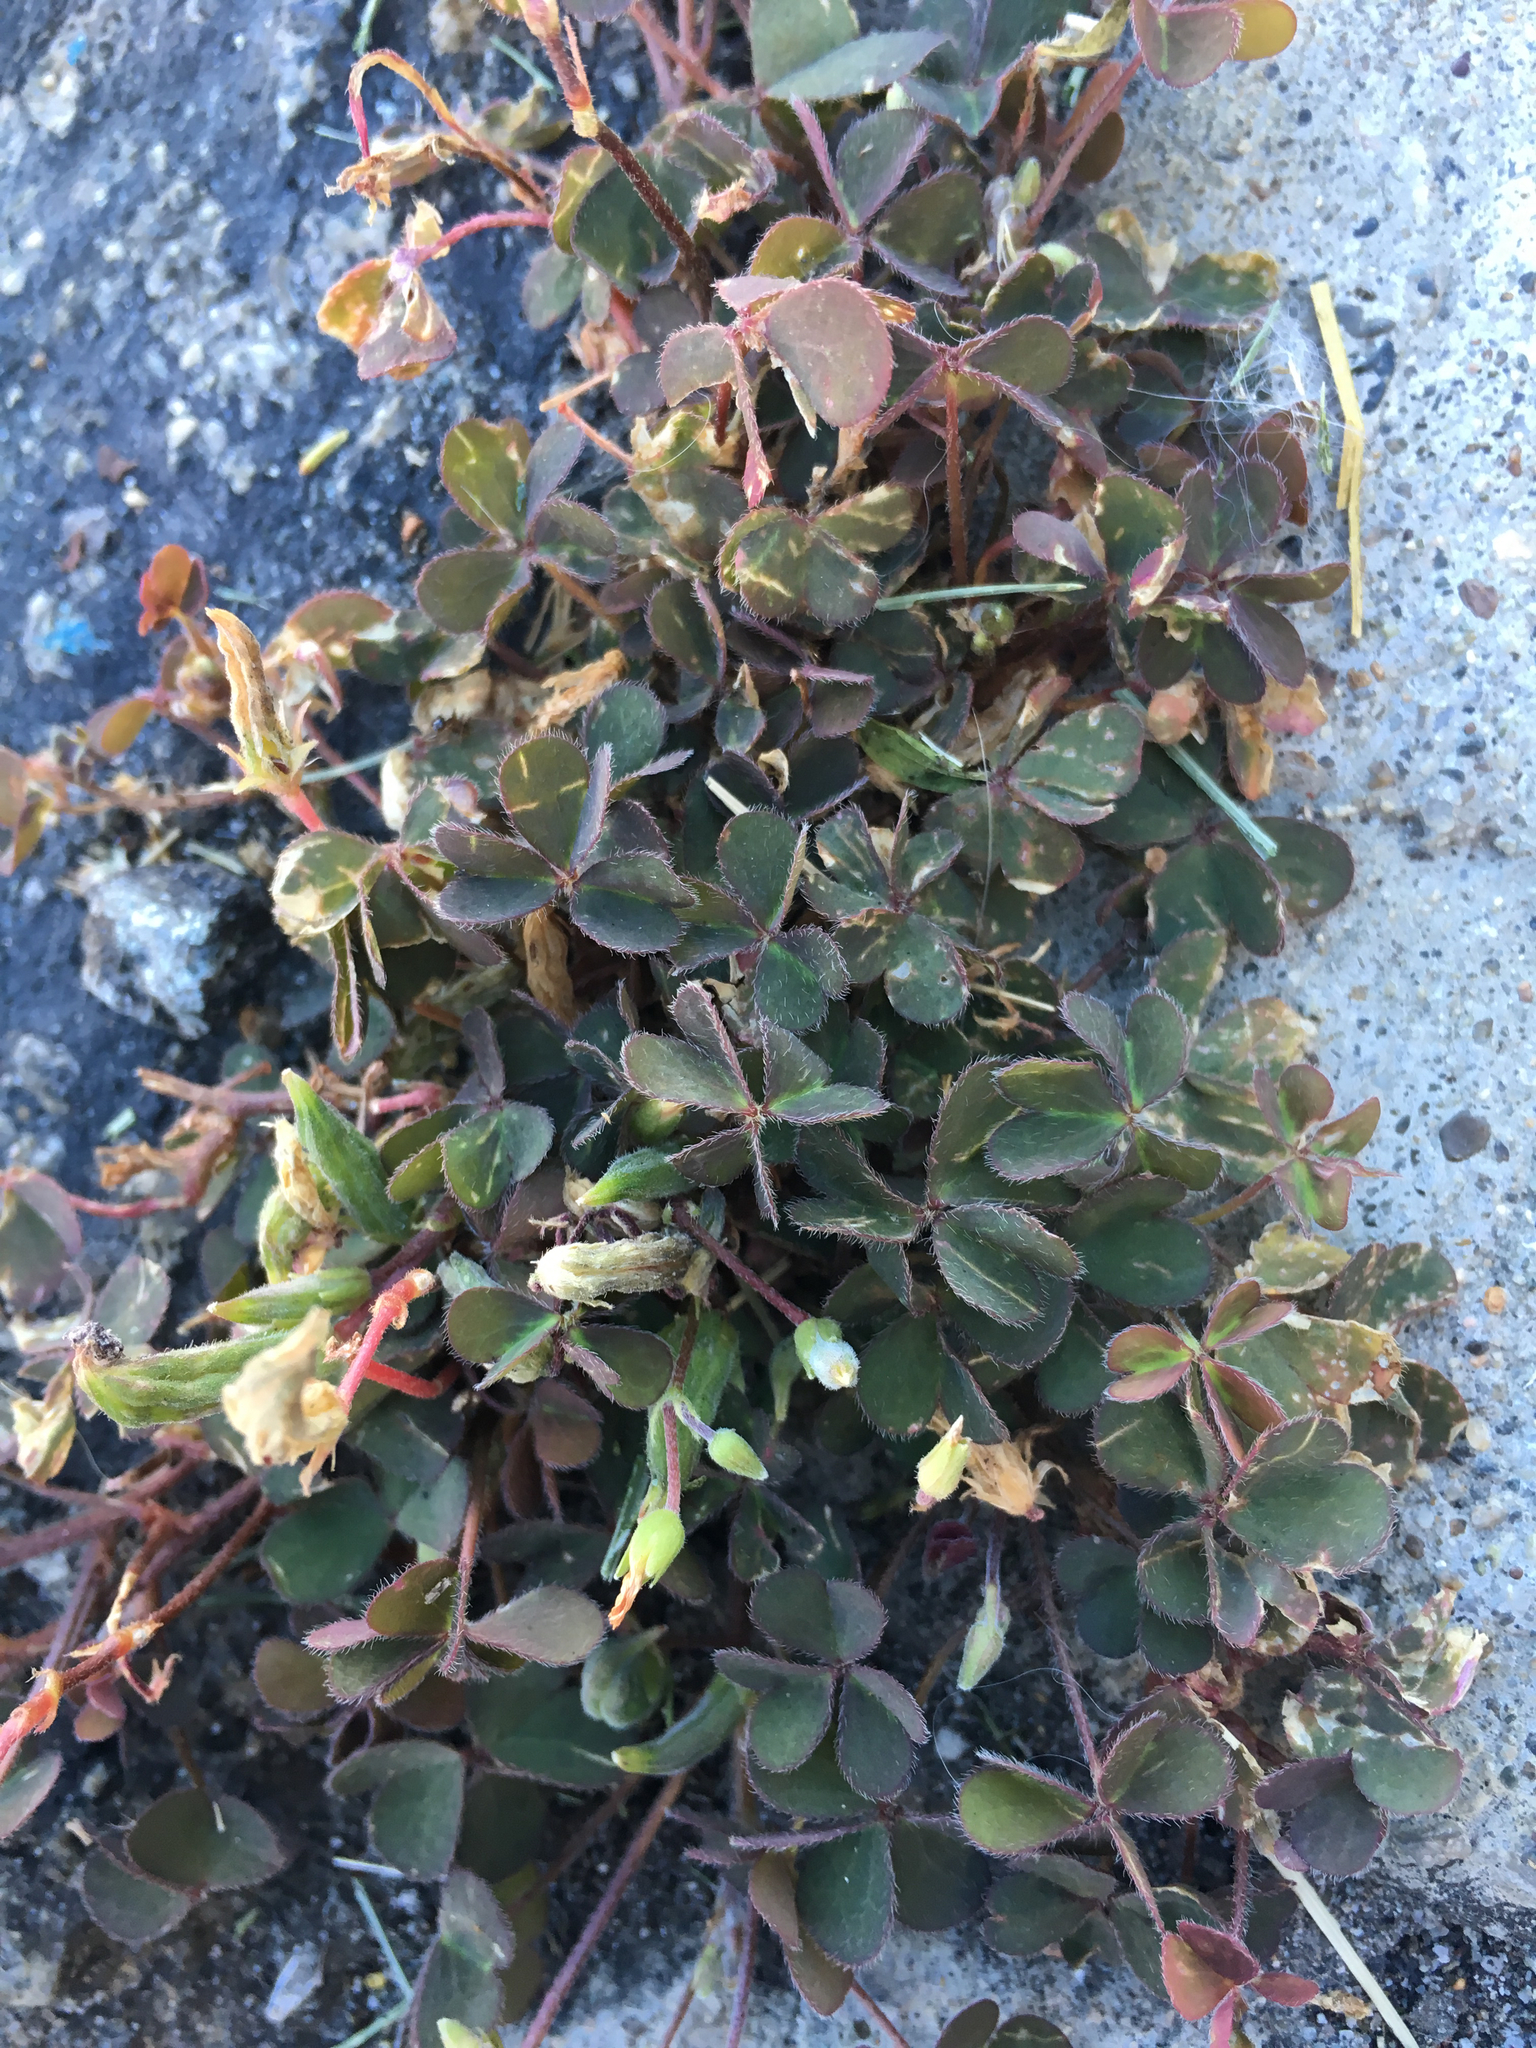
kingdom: Plantae
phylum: Tracheophyta
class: Magnoliopsida
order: Oxalidales
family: Oxalidaceae
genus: Oxalis
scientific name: Oxalis corniculata
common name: Procumbent yellow-sorrel
